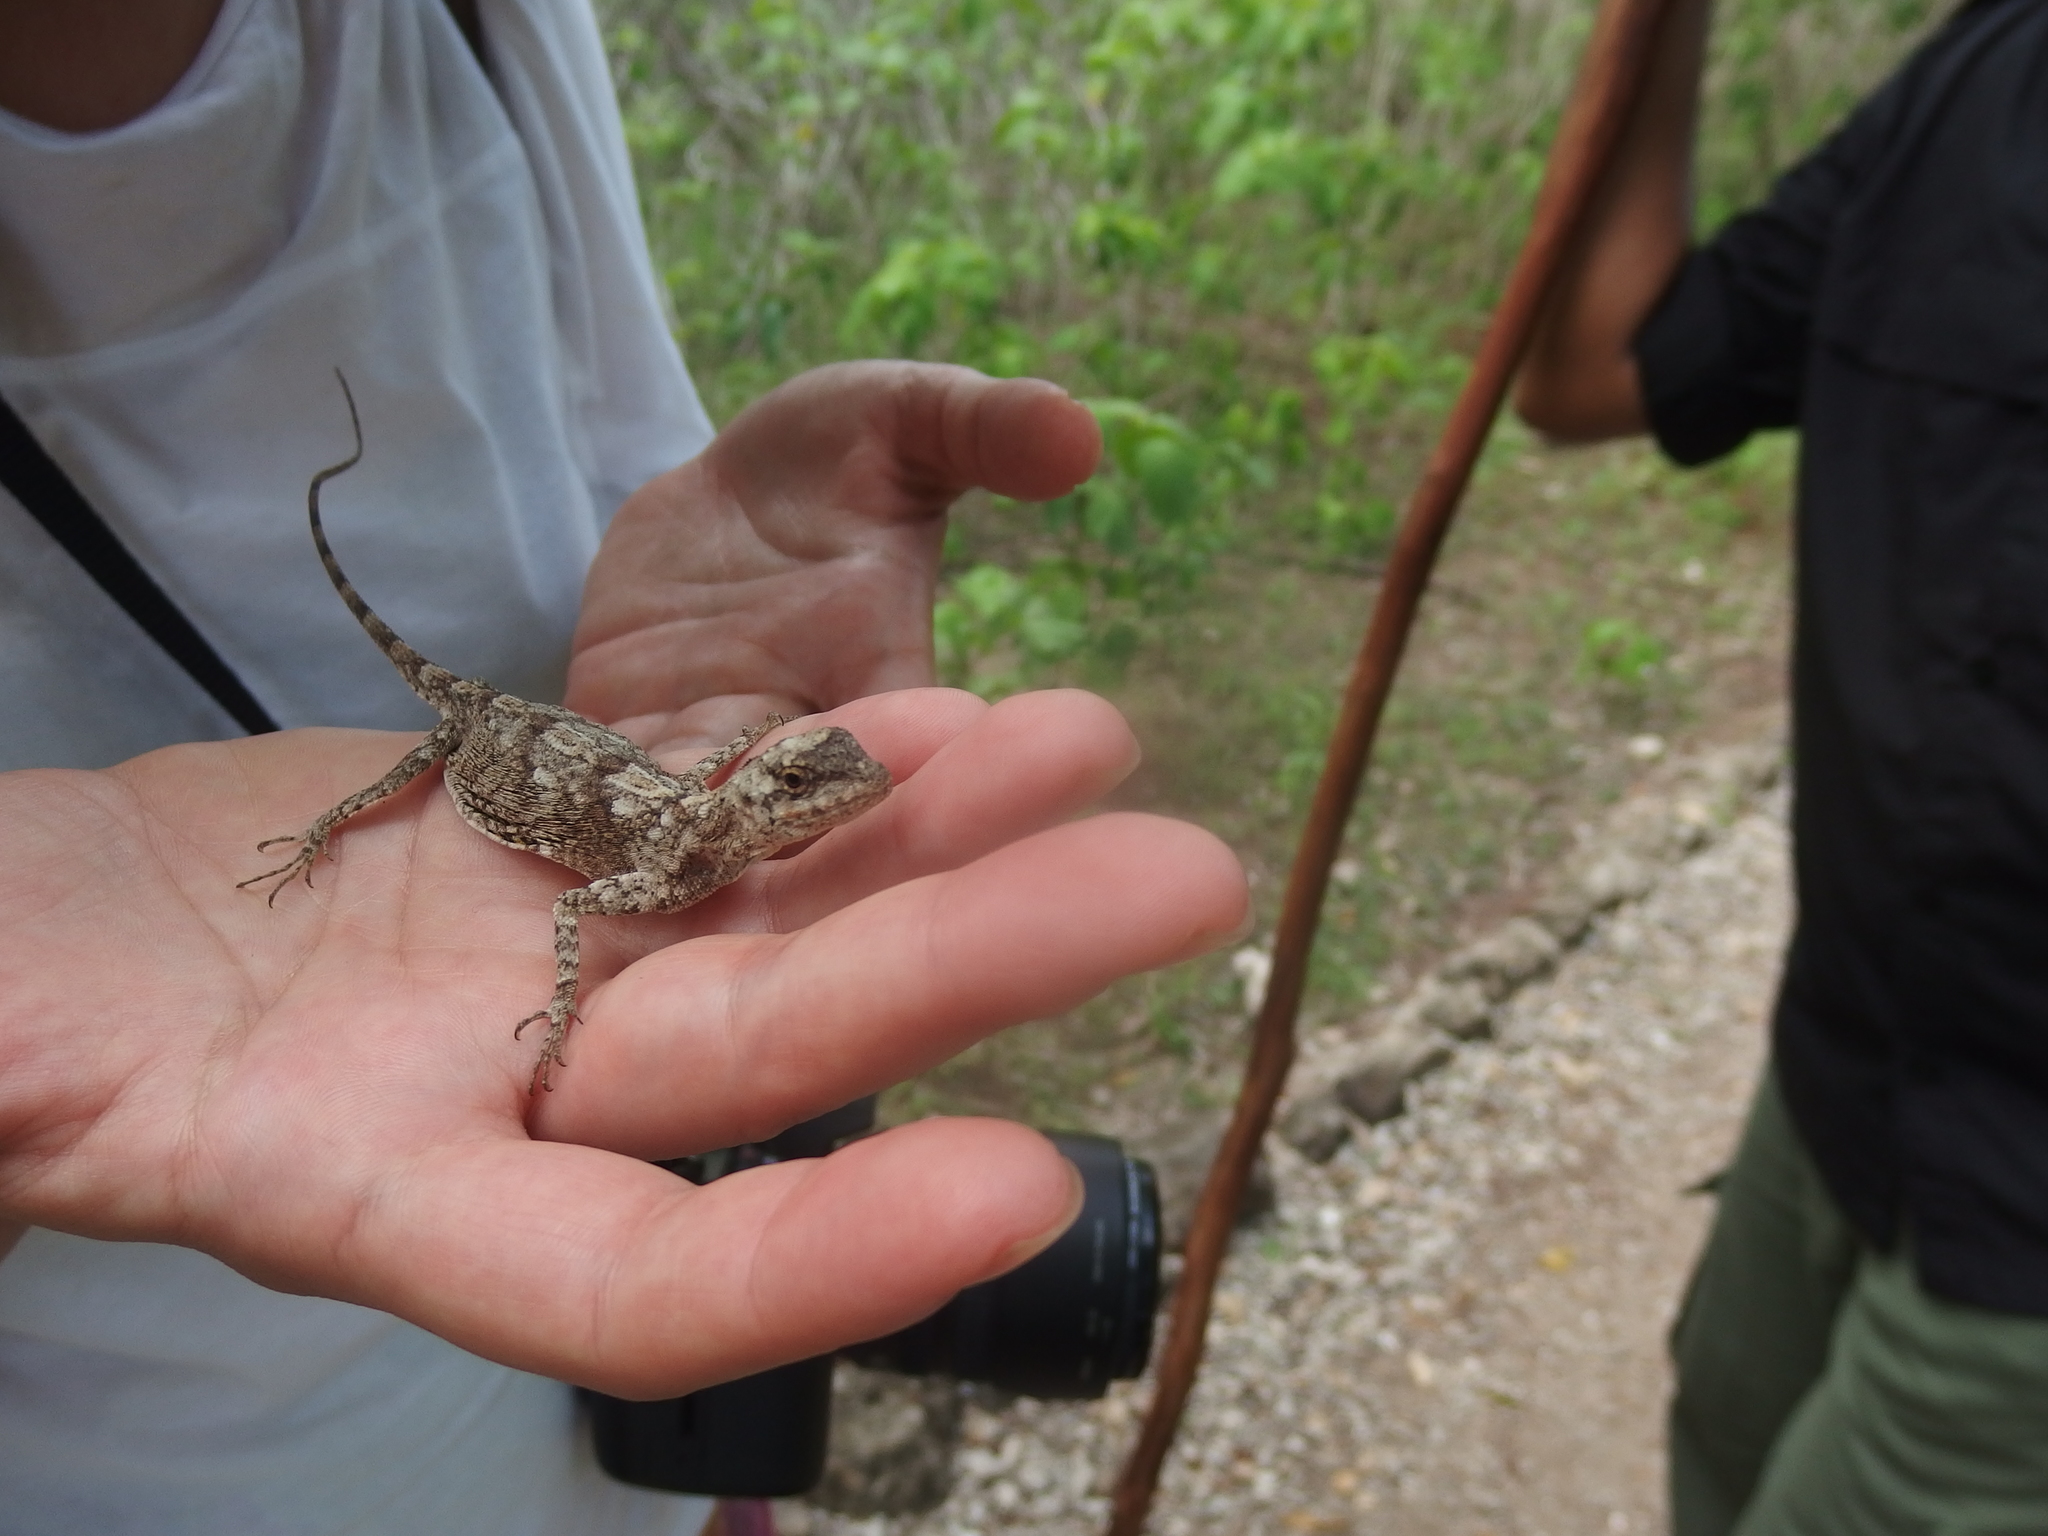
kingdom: Animalia
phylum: Chordata
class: Squamata
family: Agamidae
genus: Draco
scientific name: Draco boschmai
